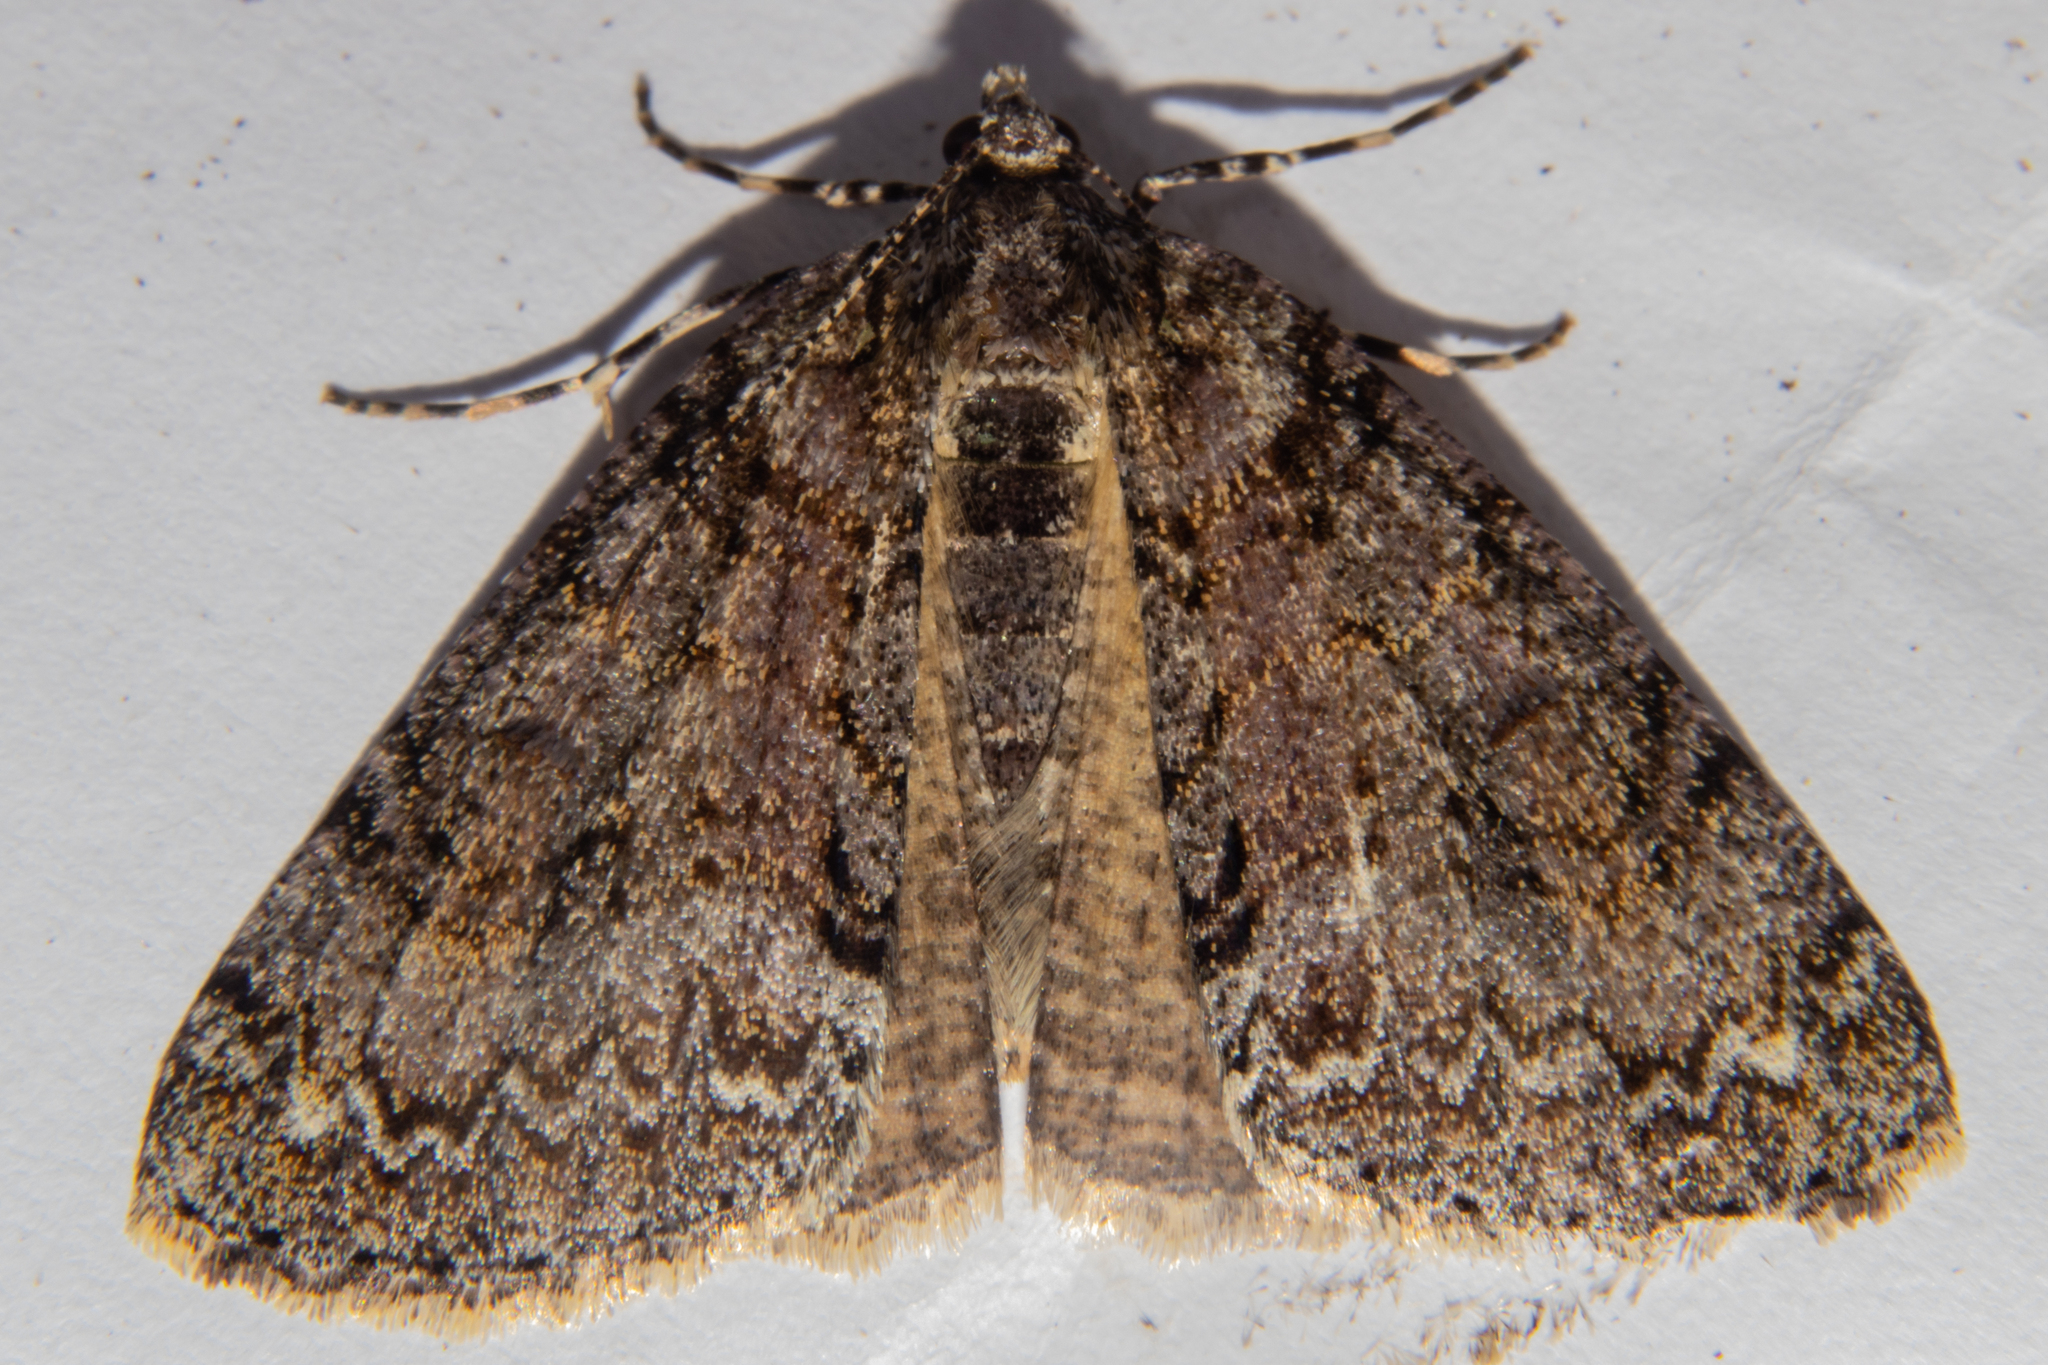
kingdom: Animalia
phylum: Arthropoda
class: Insecta
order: Lepidoptera
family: Geometridae
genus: Pseudocoremia
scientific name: Pseudocoremia suavis
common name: Common forest looper
